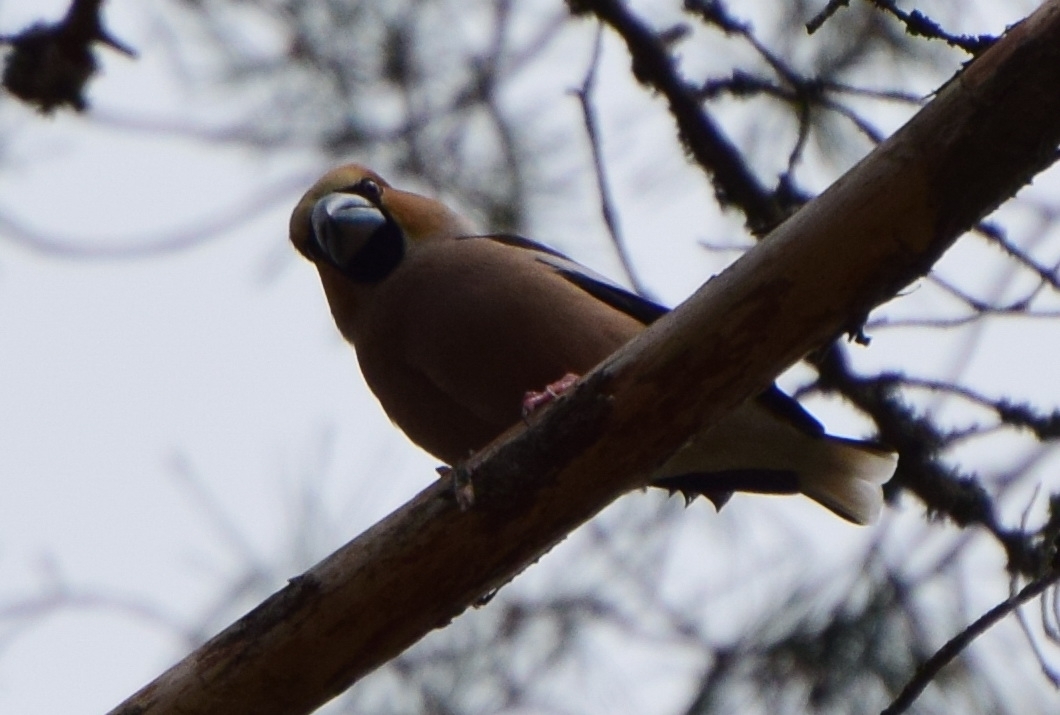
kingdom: Animalia
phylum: Chordata
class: Aves
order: Passeriformes
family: Fringillidae
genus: Coccothraustes
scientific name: Coccothraustes coccothraustes
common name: Hawfinch
